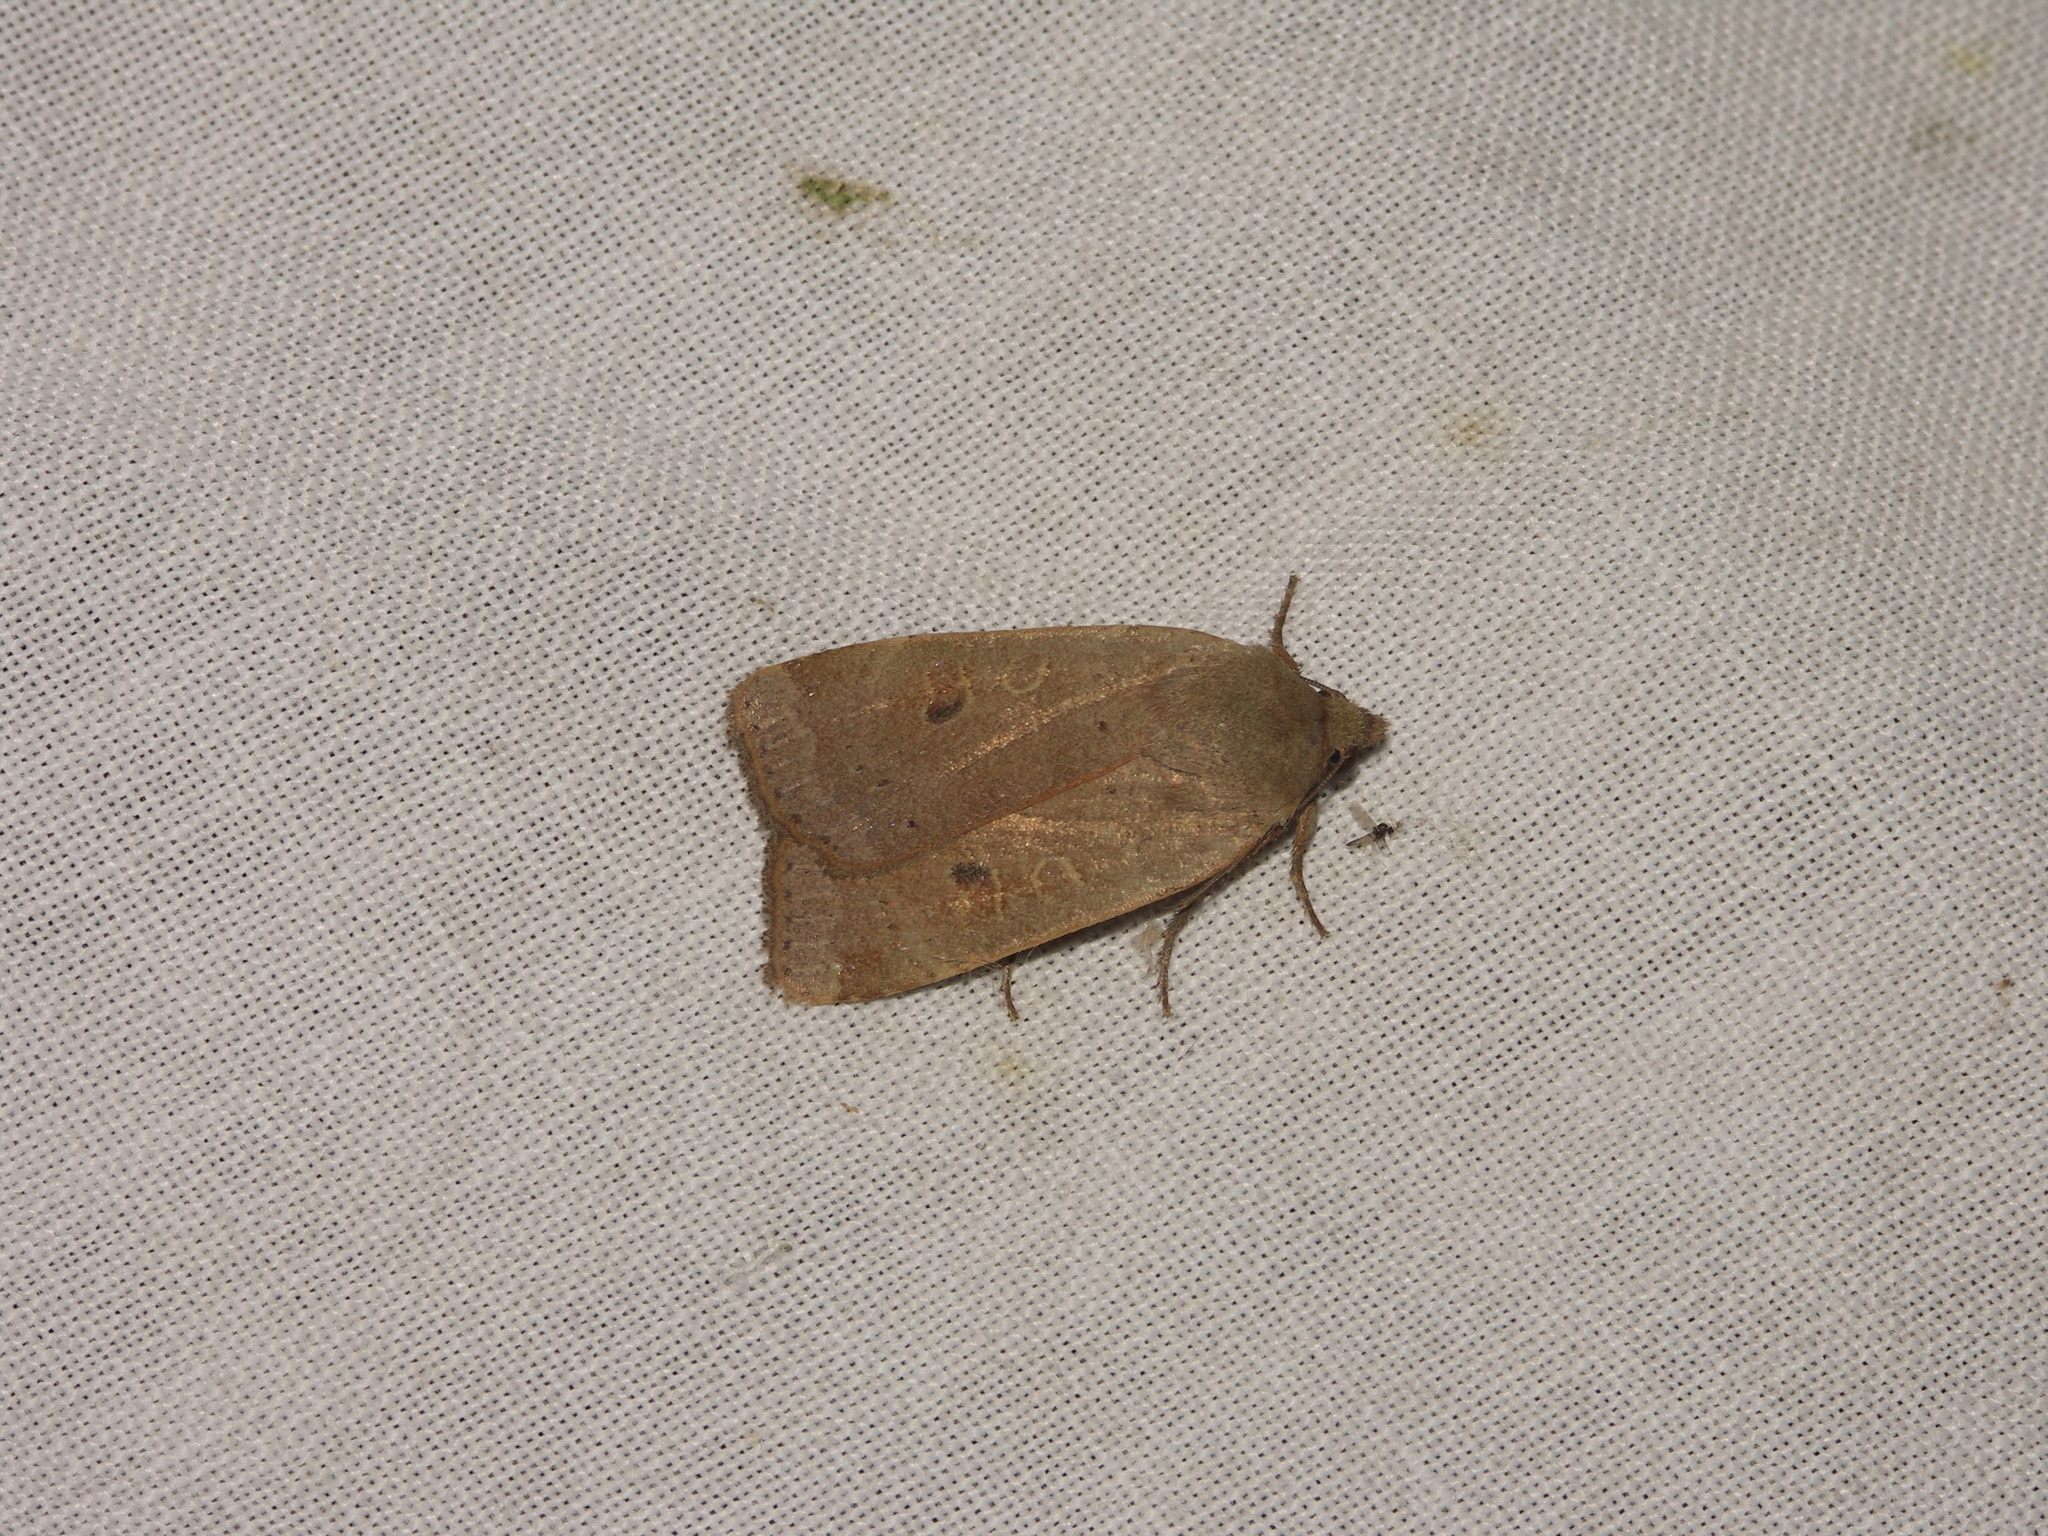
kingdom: Animalia
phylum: Arthropoda
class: Insecta
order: Lepidoptera
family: Noctuidae
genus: Noctua
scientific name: Noctua comes
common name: Lesser yellow underwing
